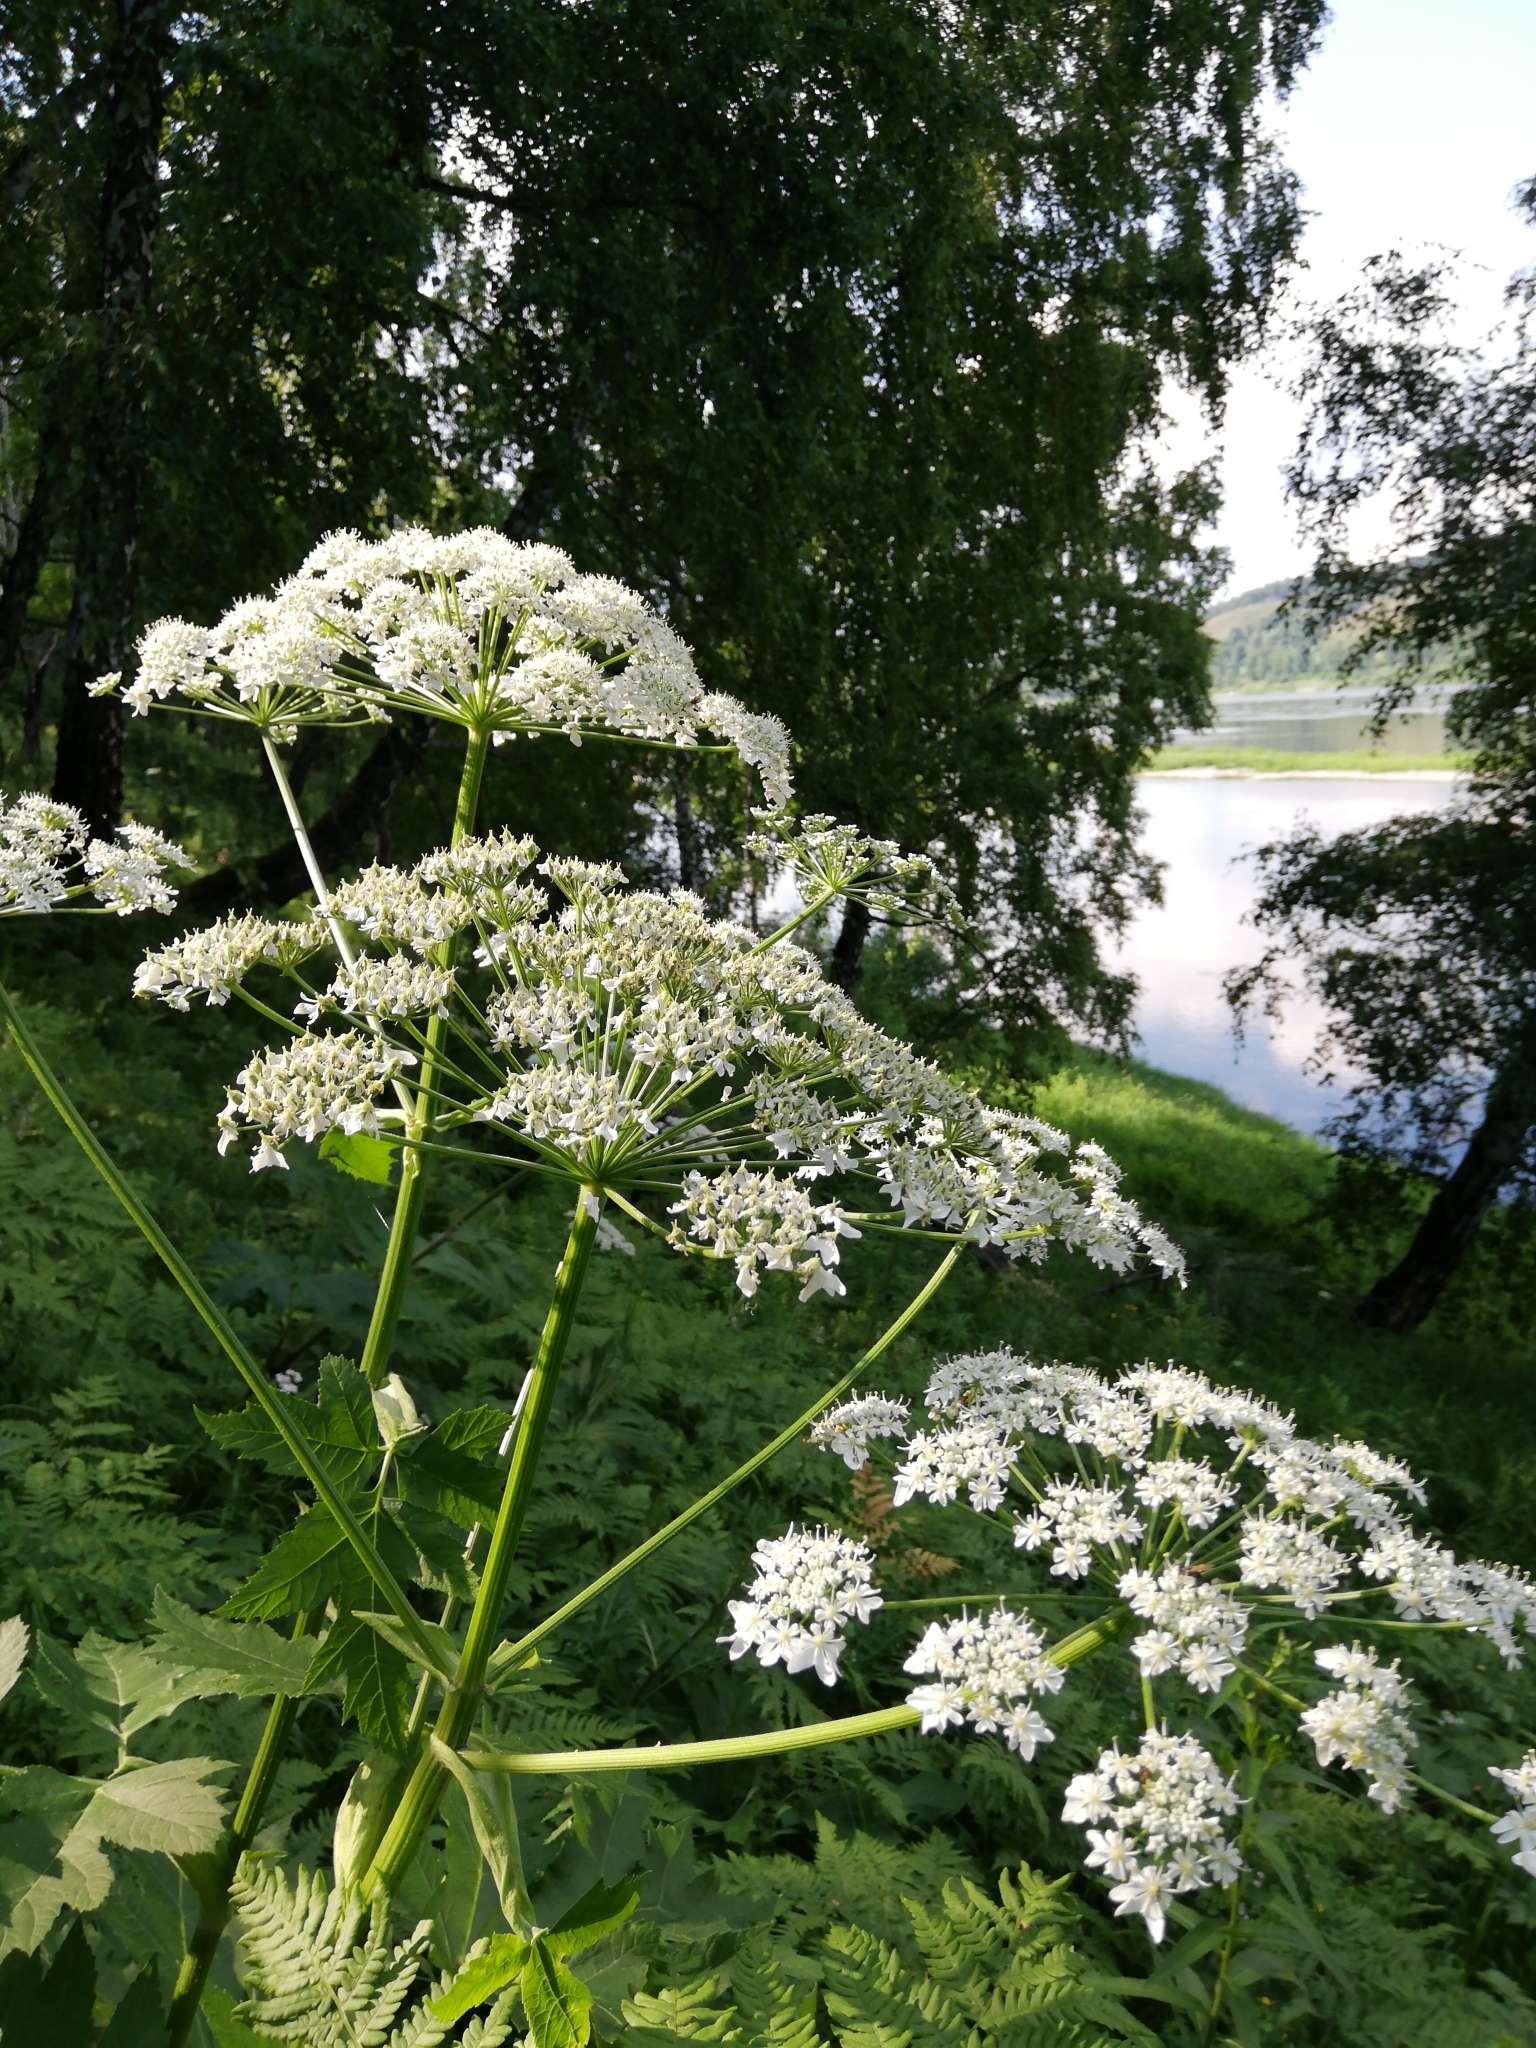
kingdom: Plantae
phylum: Tracheophyta
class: Magnoliopsida
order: Apiales
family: Apiaceae
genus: Heracleum
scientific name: Heracleum dissectum
